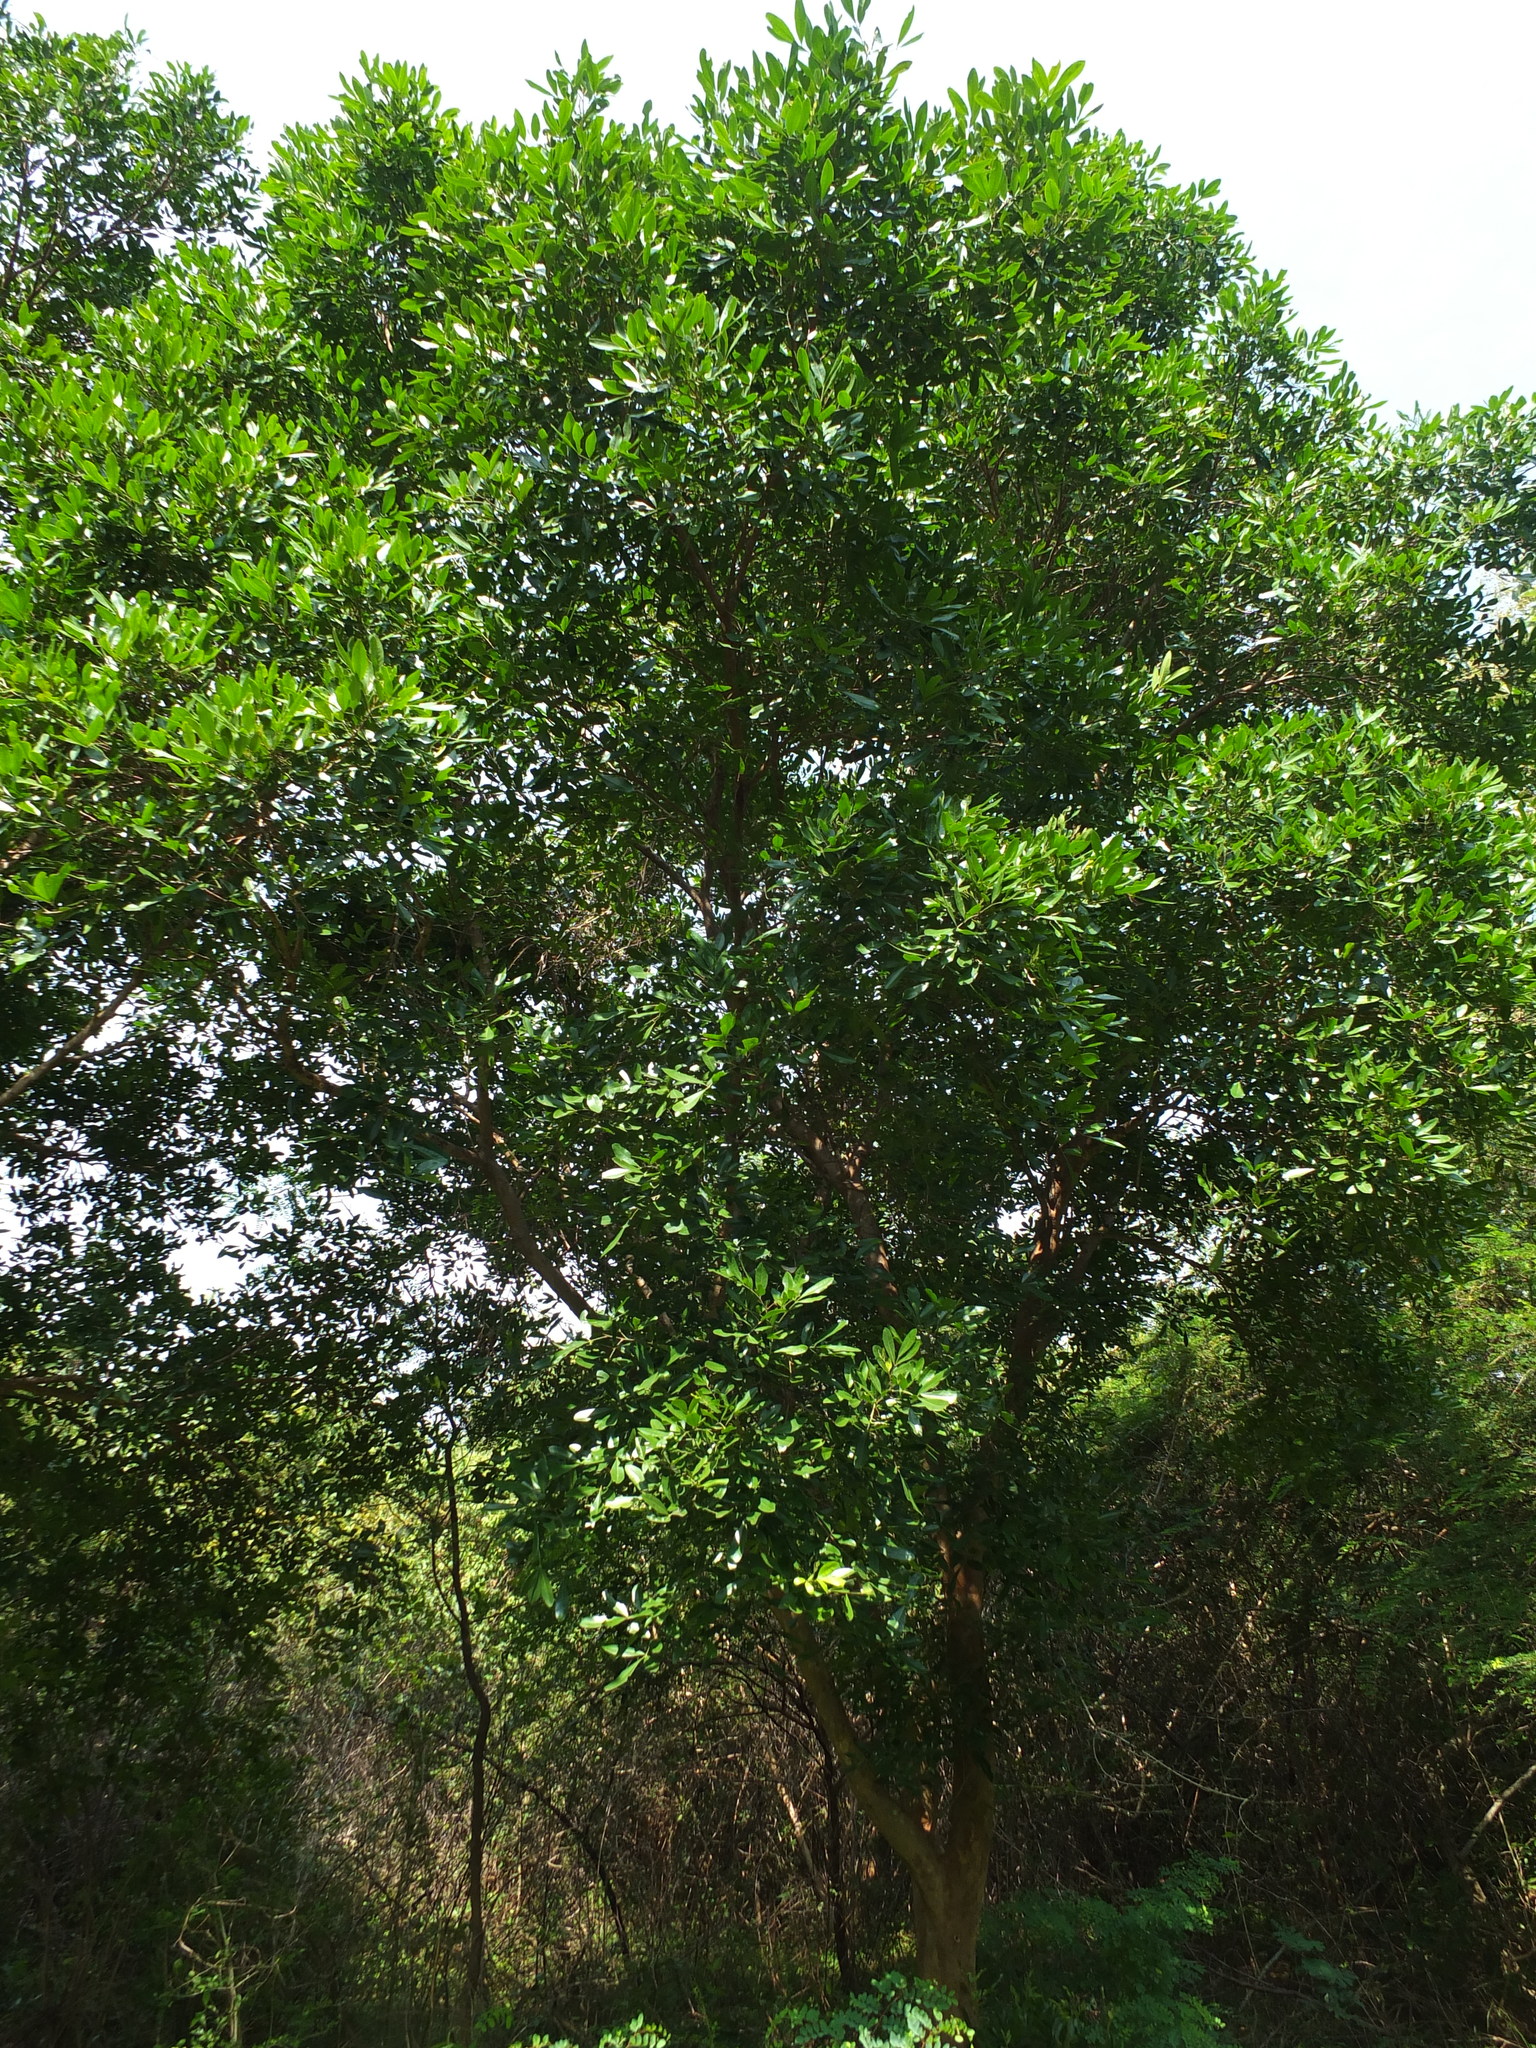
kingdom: Plantae
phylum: Tracheophyta
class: Magnoliopsida
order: Sapindales
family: Meliaceae
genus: Aglaia
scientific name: Aglaia elaeagnoidea
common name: Droopyleaf
